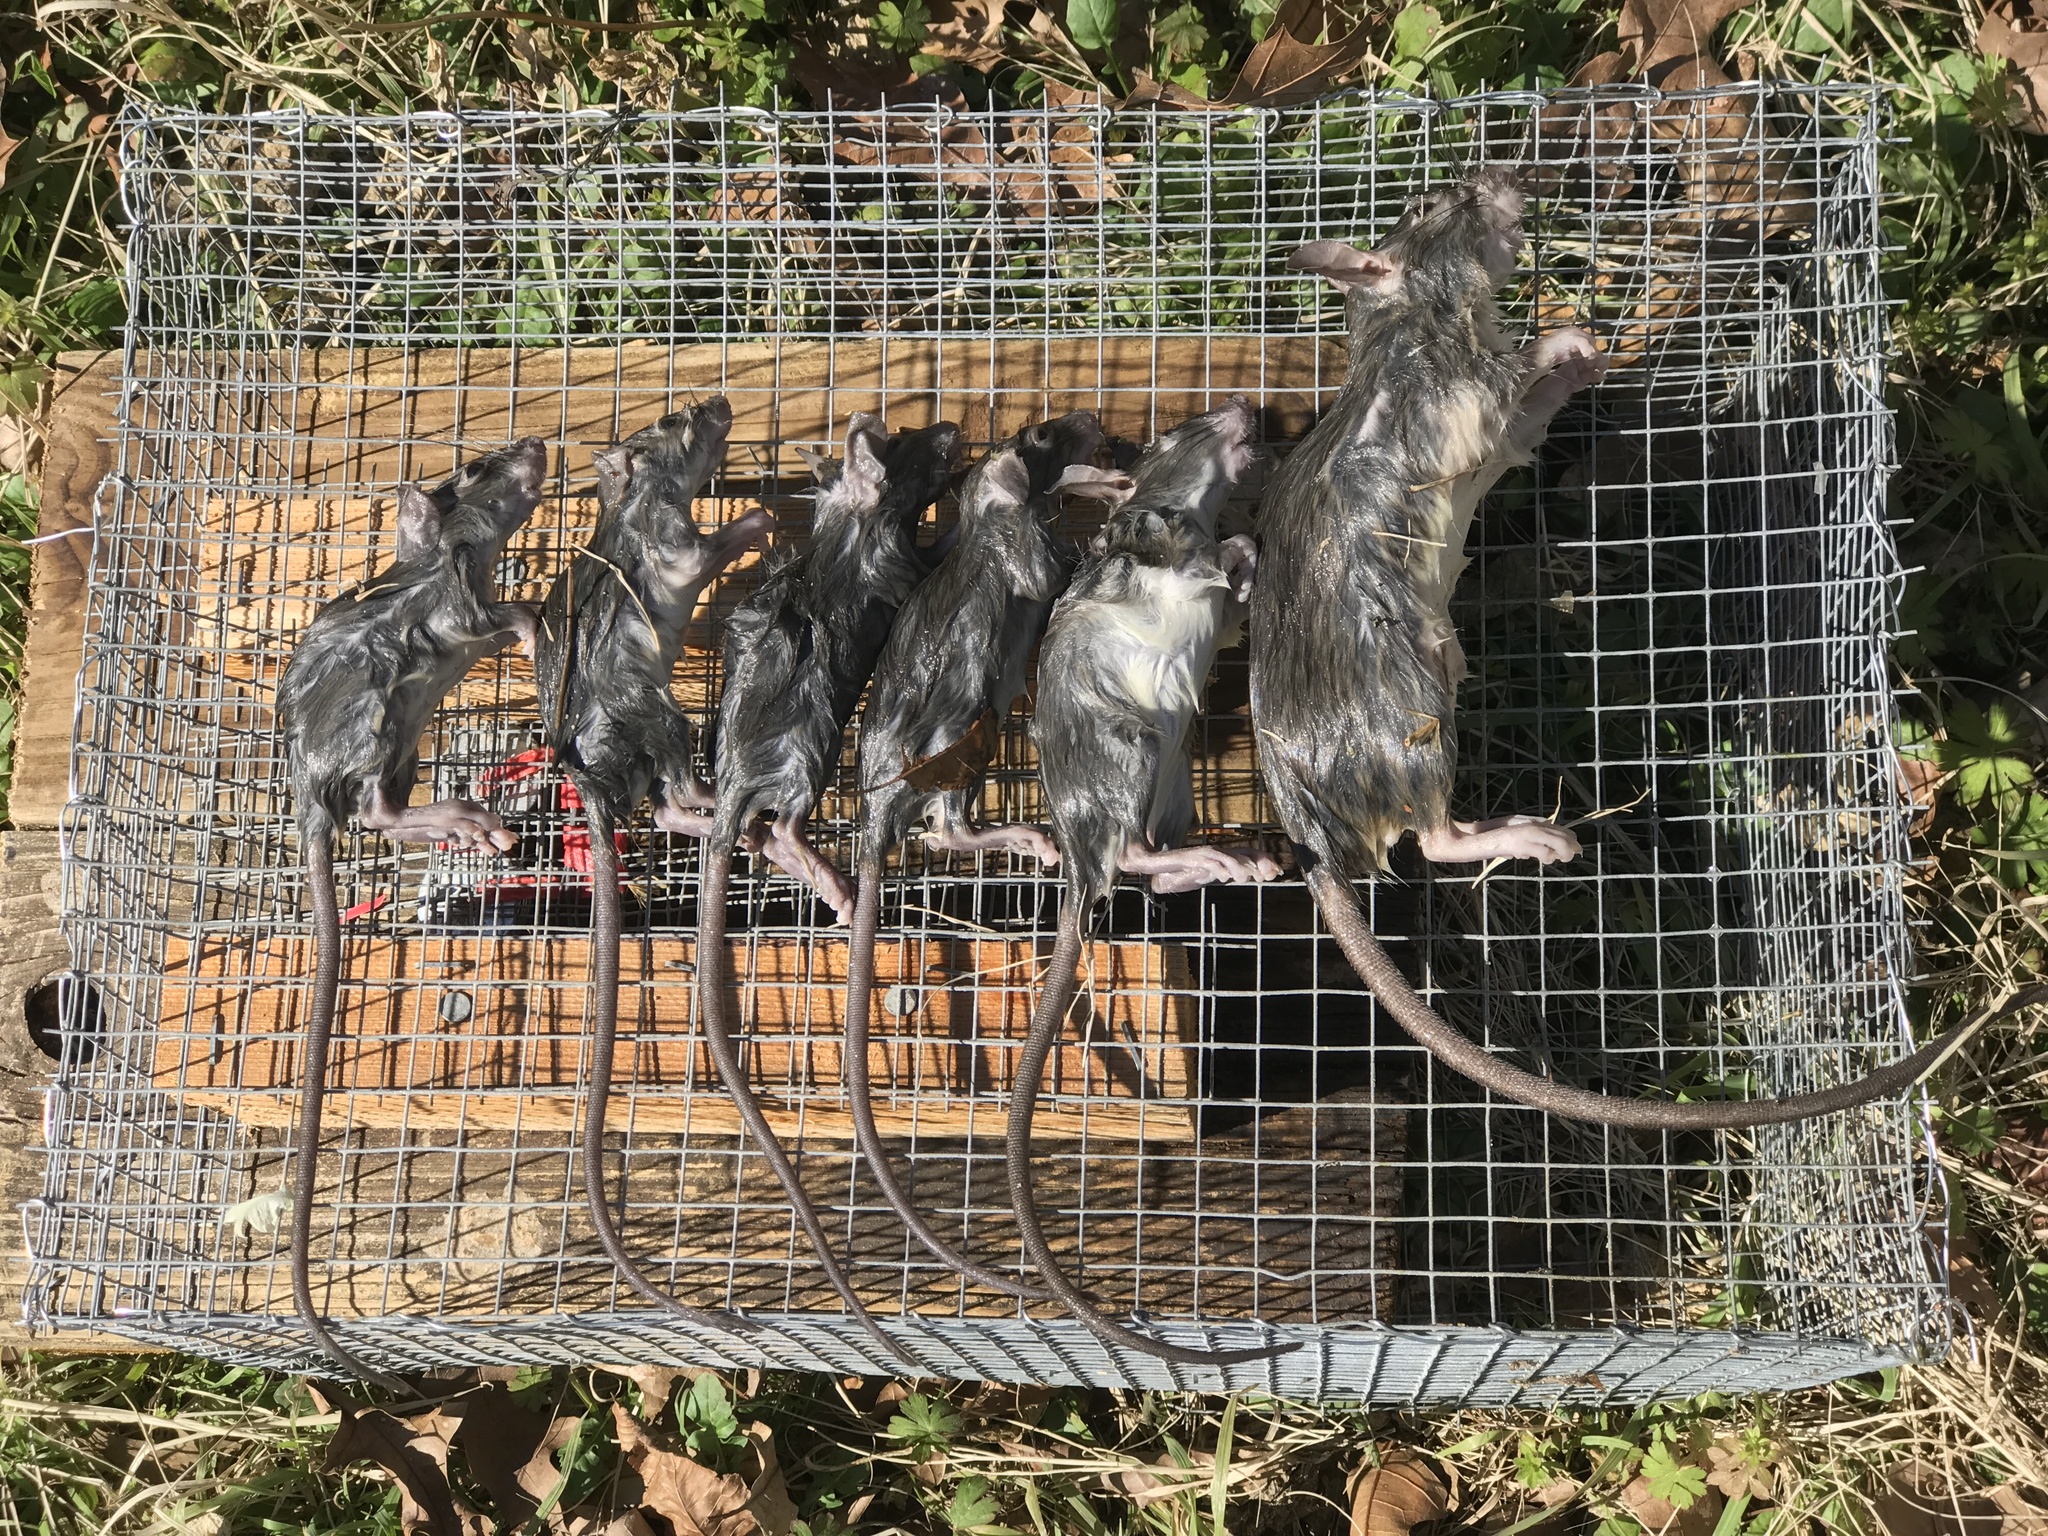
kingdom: Animalia
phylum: Chordata
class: Mammalia
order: Rodentia
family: Muridae
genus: Rattus
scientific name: Rattus rattus
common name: Black rat
